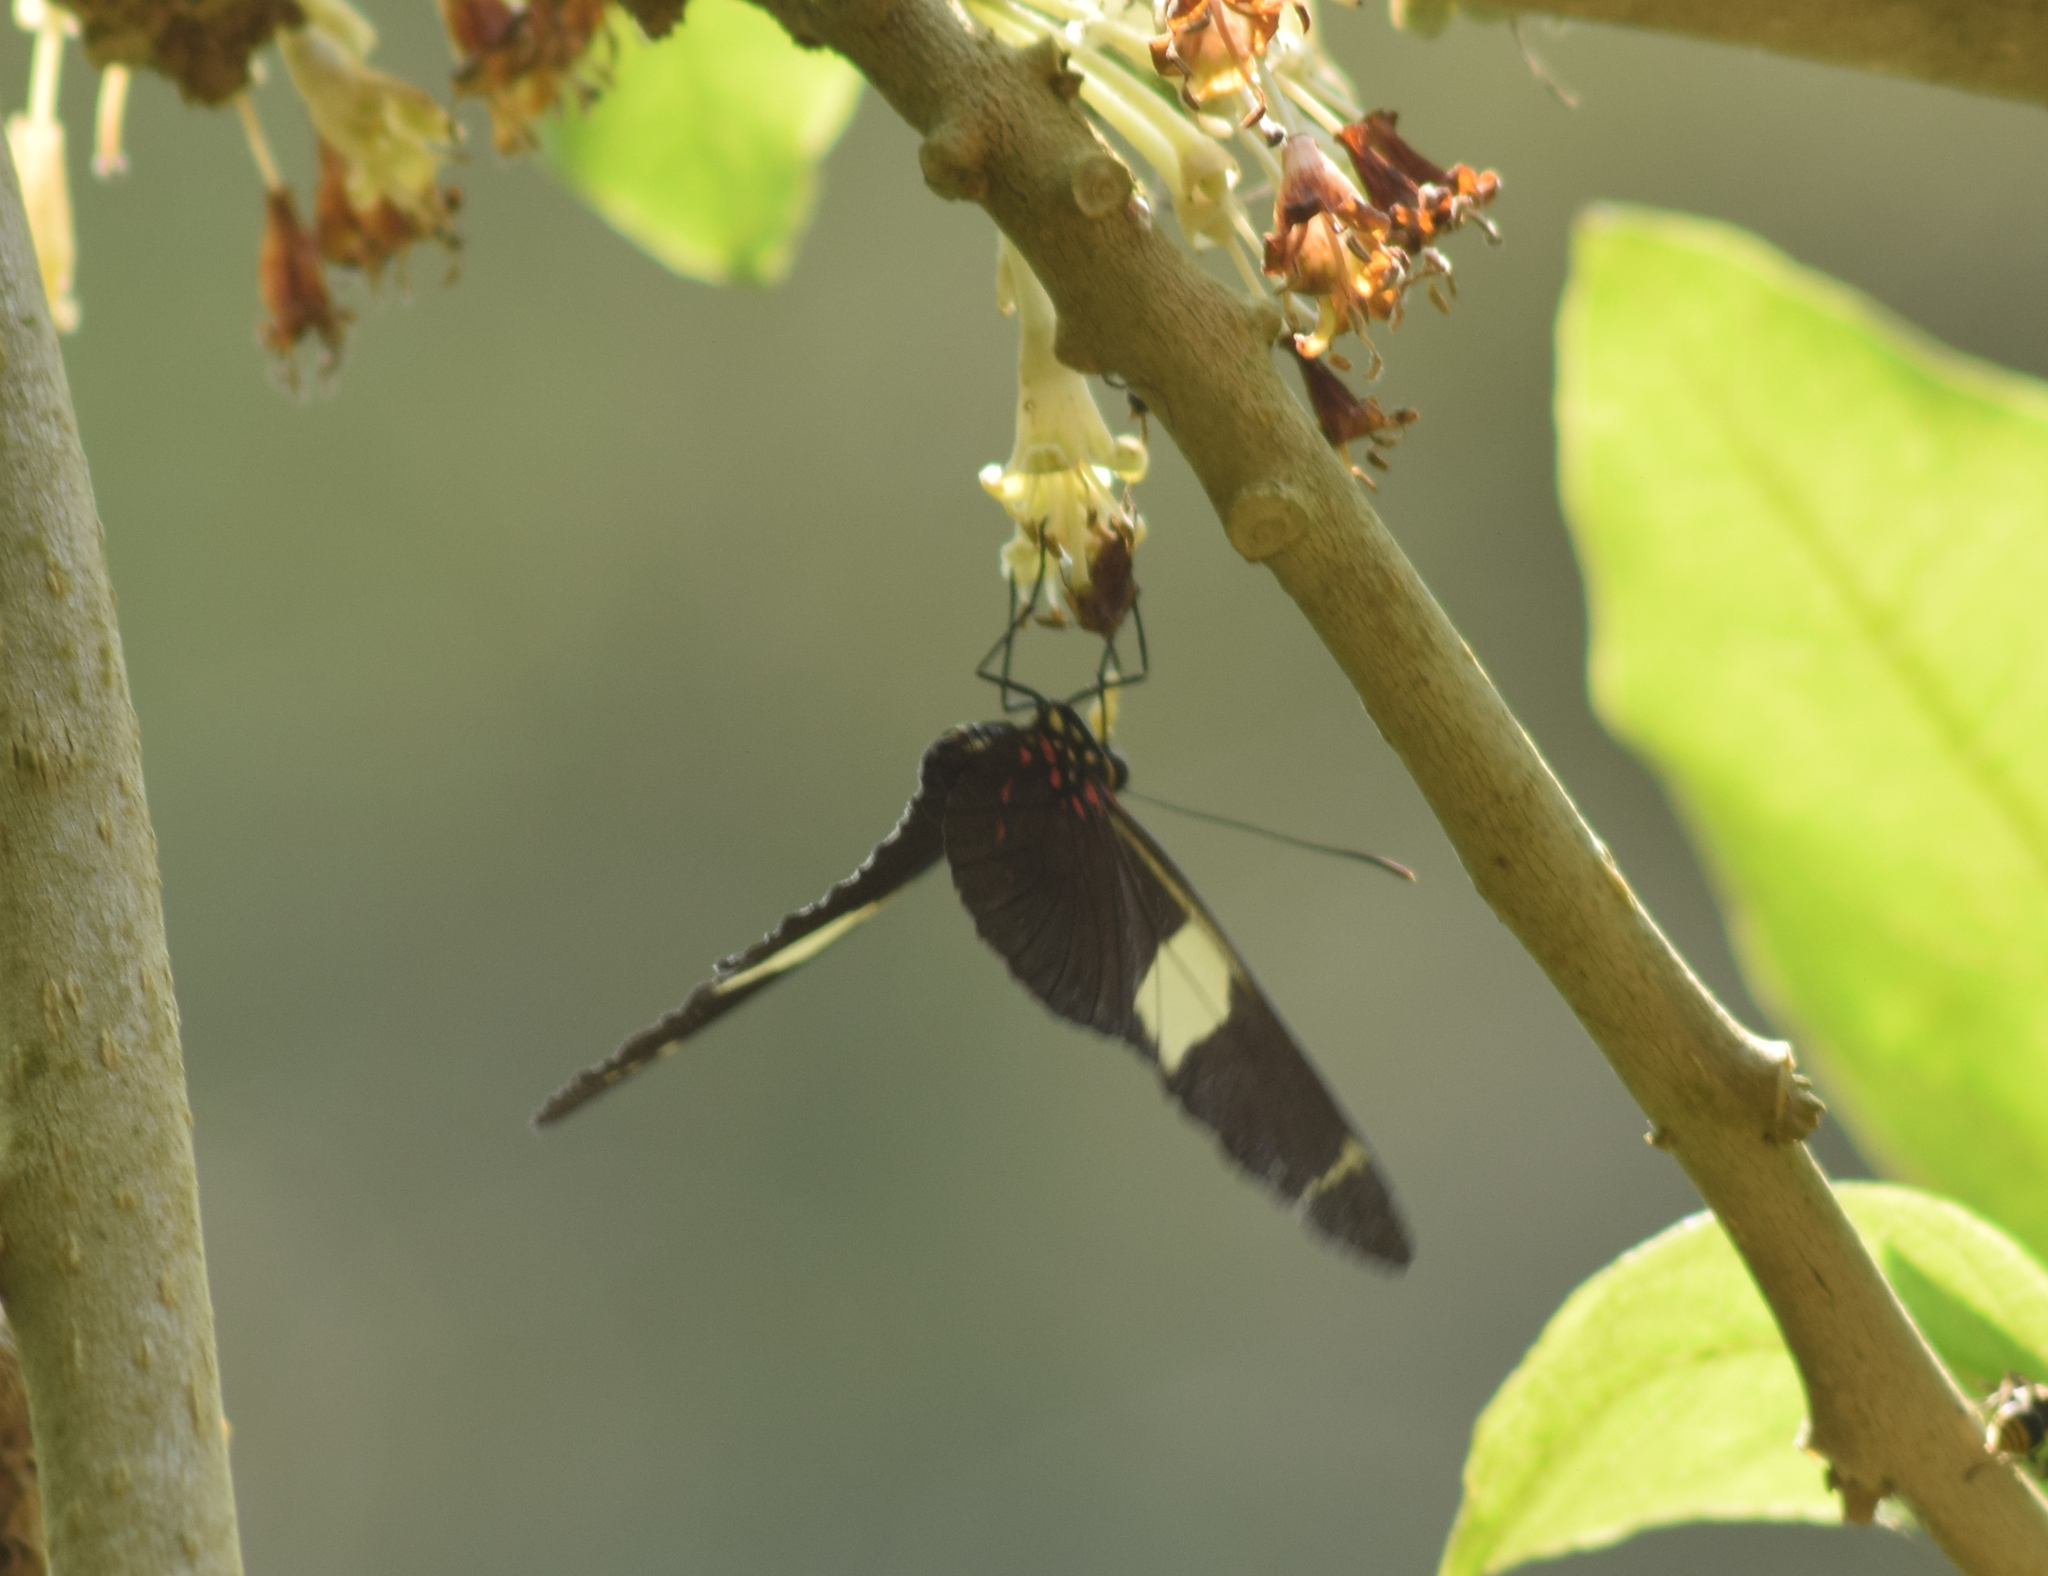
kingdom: Animalia
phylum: Arthropoda
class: Insecta
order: Lepidoptera
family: Nymphalidae
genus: Heliconius
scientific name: Heliconius sara
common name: Sara longwing
